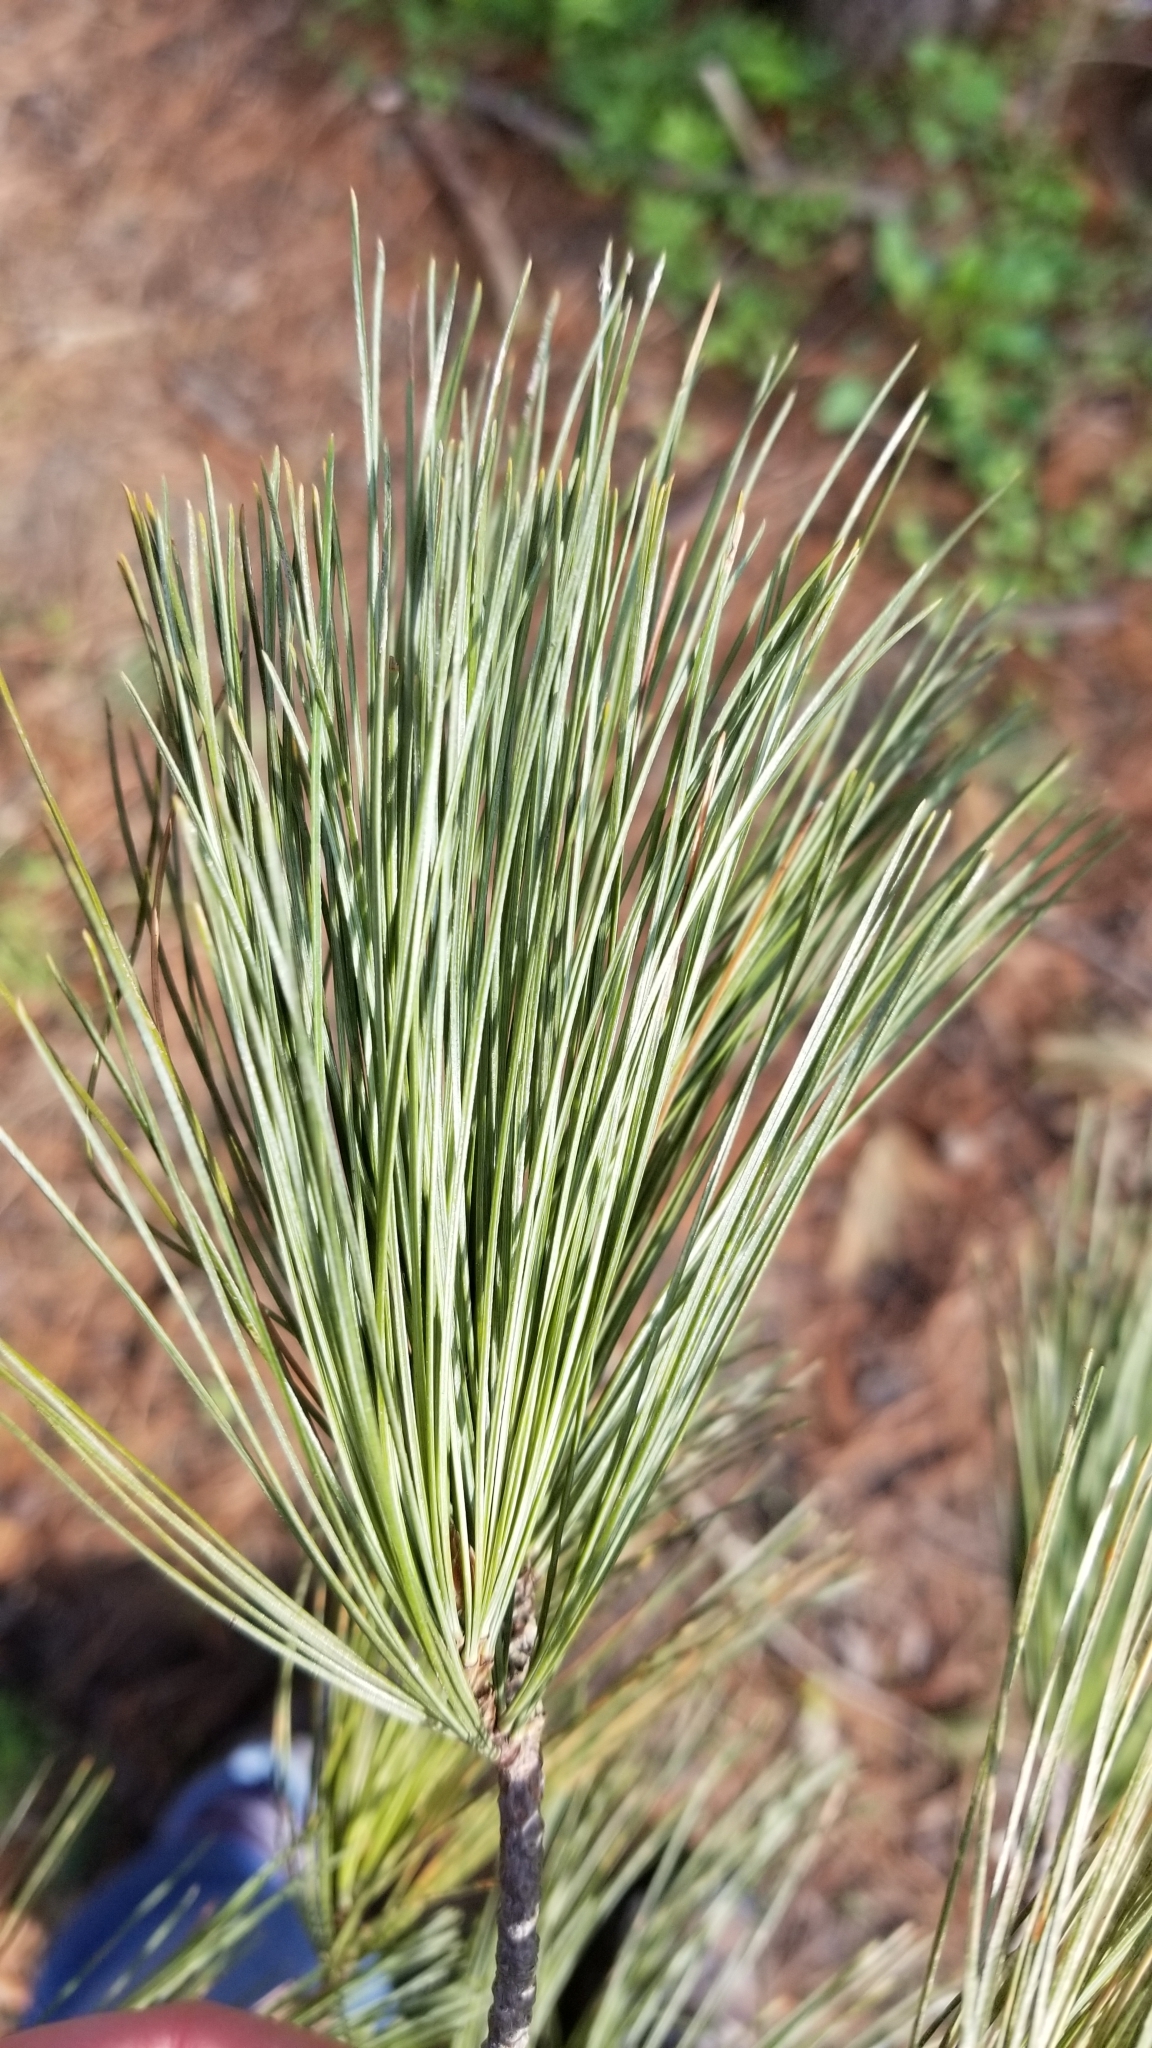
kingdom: Plantae
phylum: Tracheophyta
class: Pinopsida
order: Pinales
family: Pinaceae
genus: Pinus
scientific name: Pinus strobus
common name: Weymouth pine
